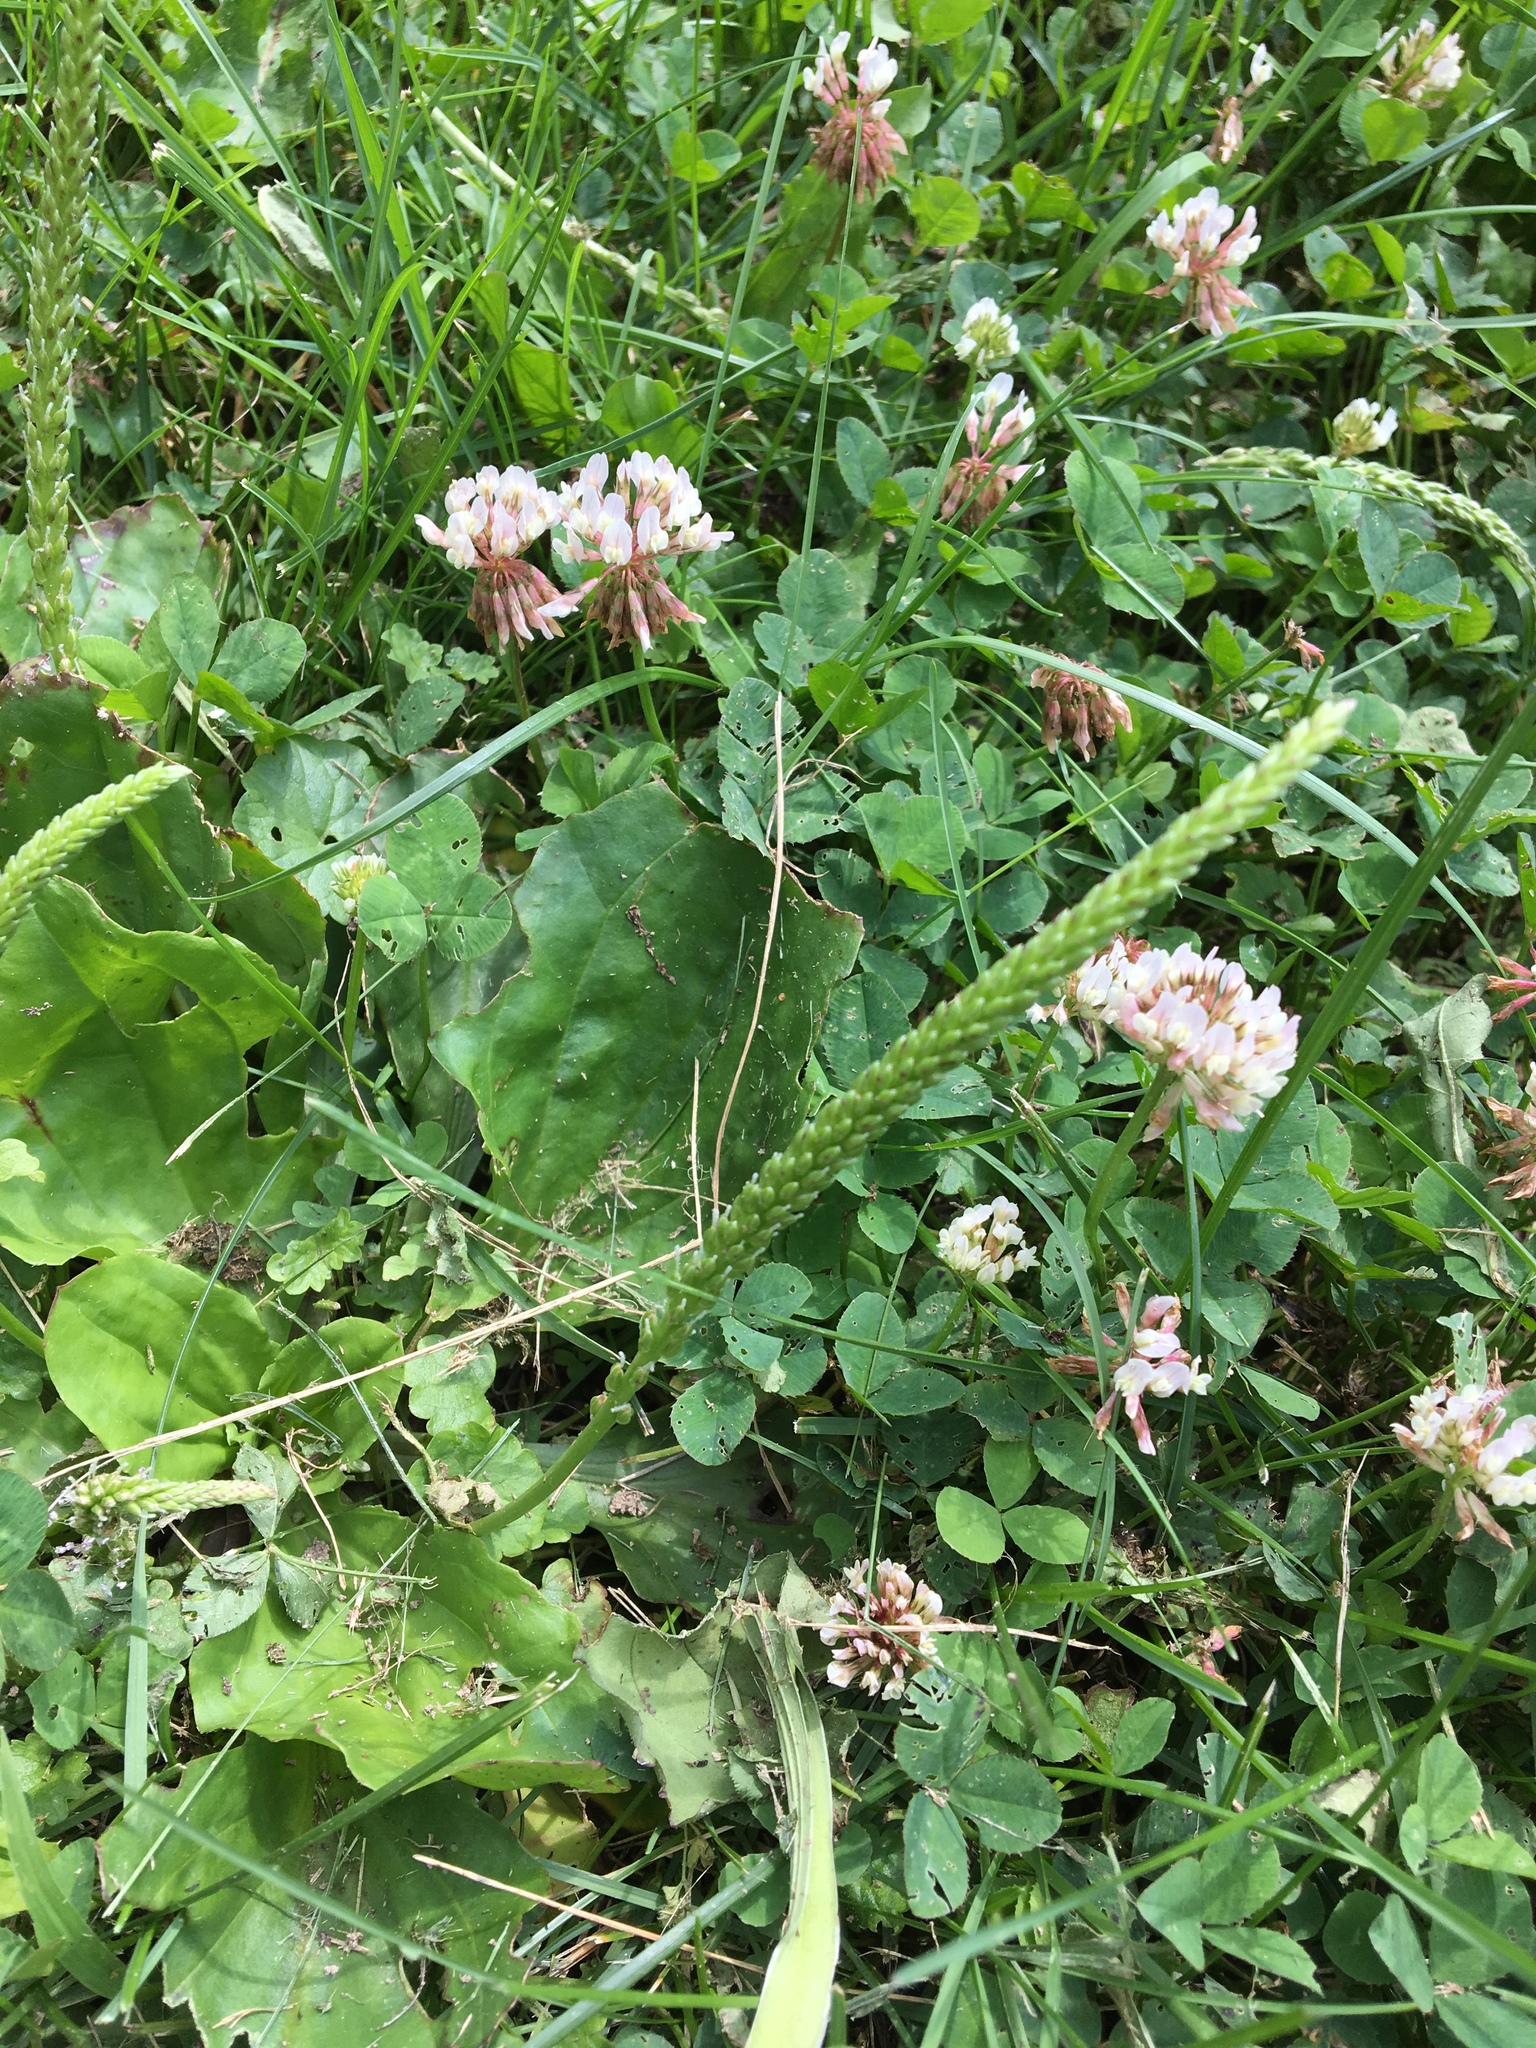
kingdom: Plantae
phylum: Tracheophyta
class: Magnoliopsida
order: Lamiales
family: Plantaginaceae
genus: Plantago
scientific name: Plantago major
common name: Common plantain
